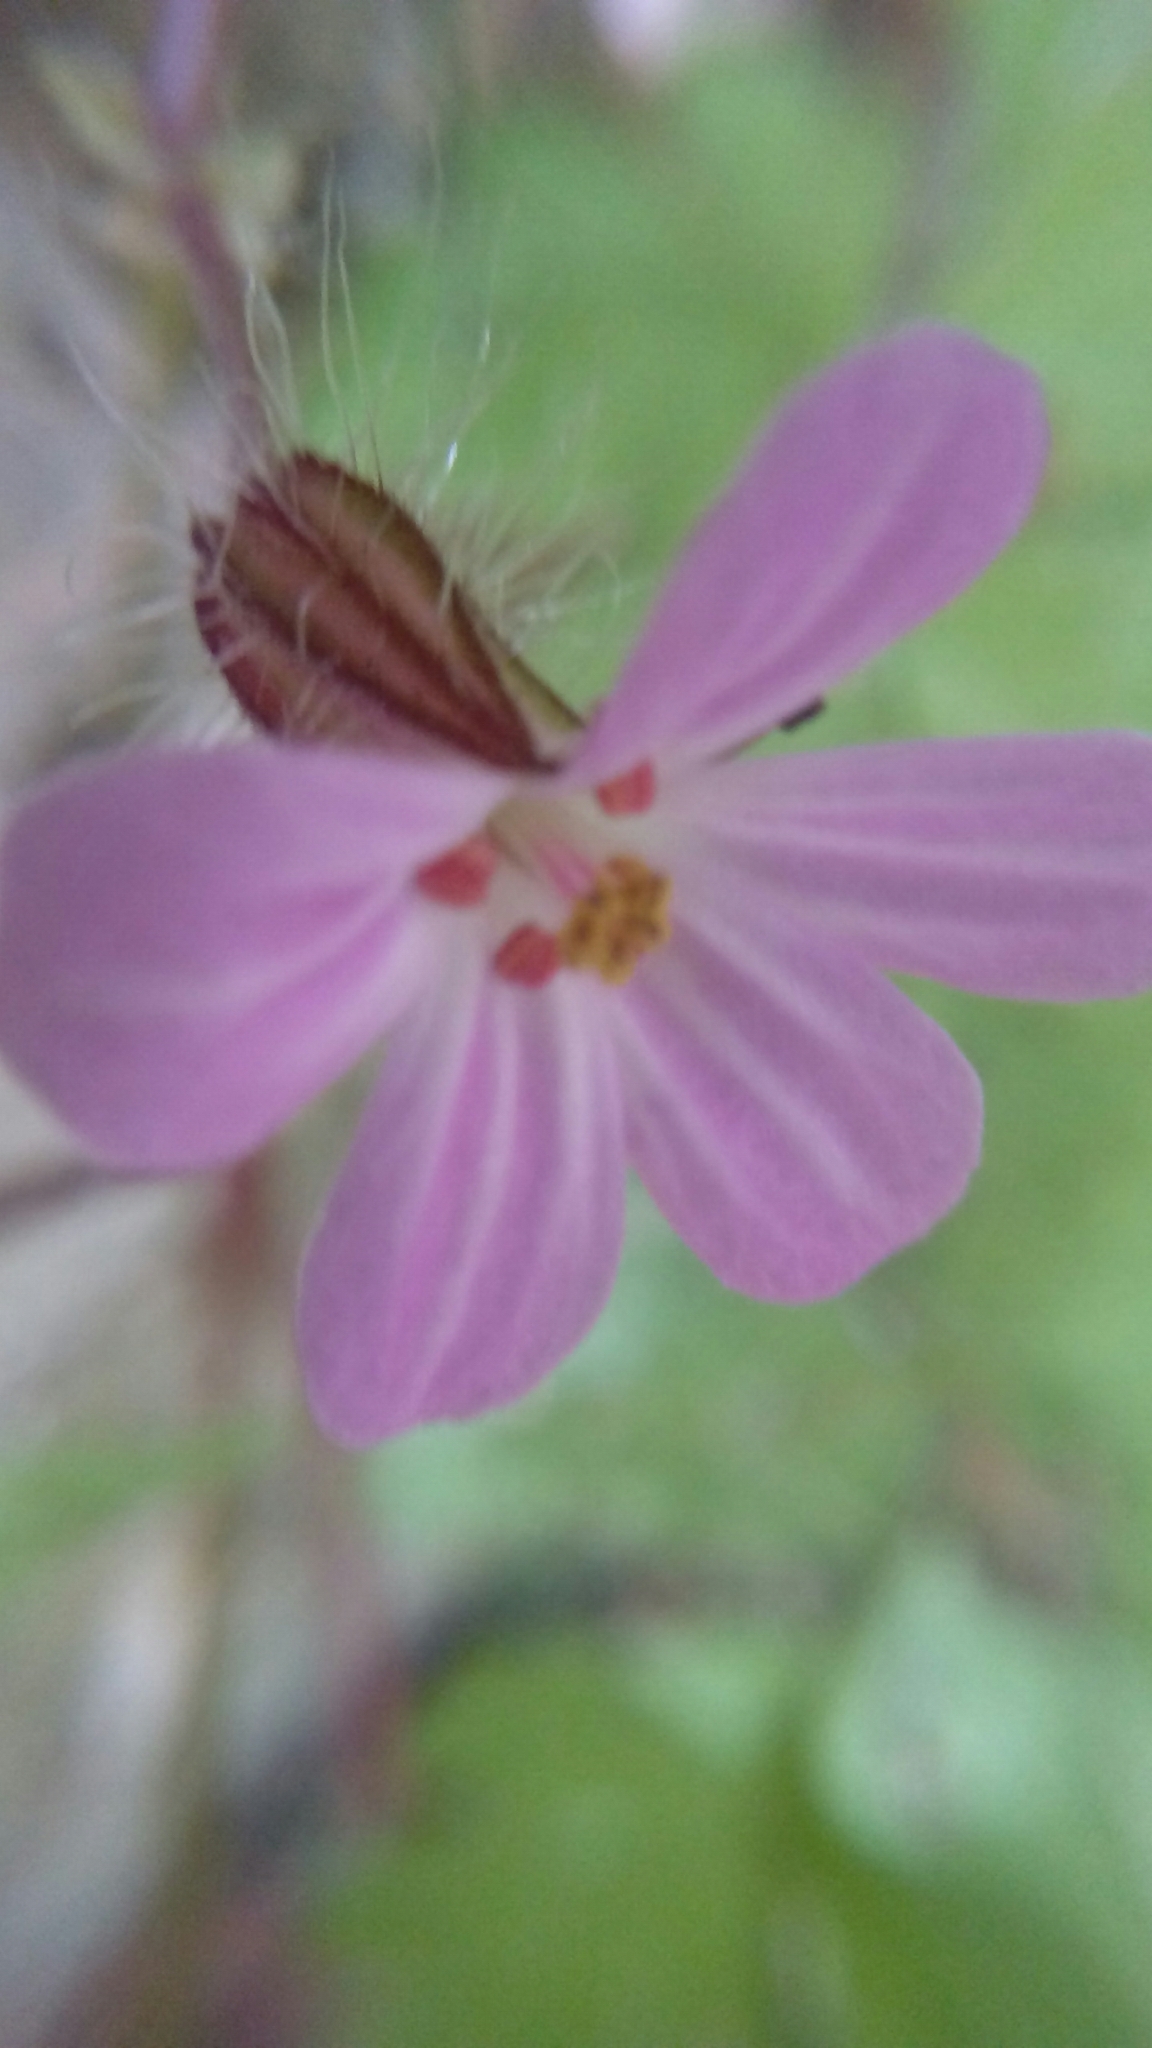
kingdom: Plantae
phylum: Tracheophyta
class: Magnoliopsida
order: Geraniales
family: Geraniaceae
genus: Geranium
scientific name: Geranium robertianum
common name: Herb-robert
